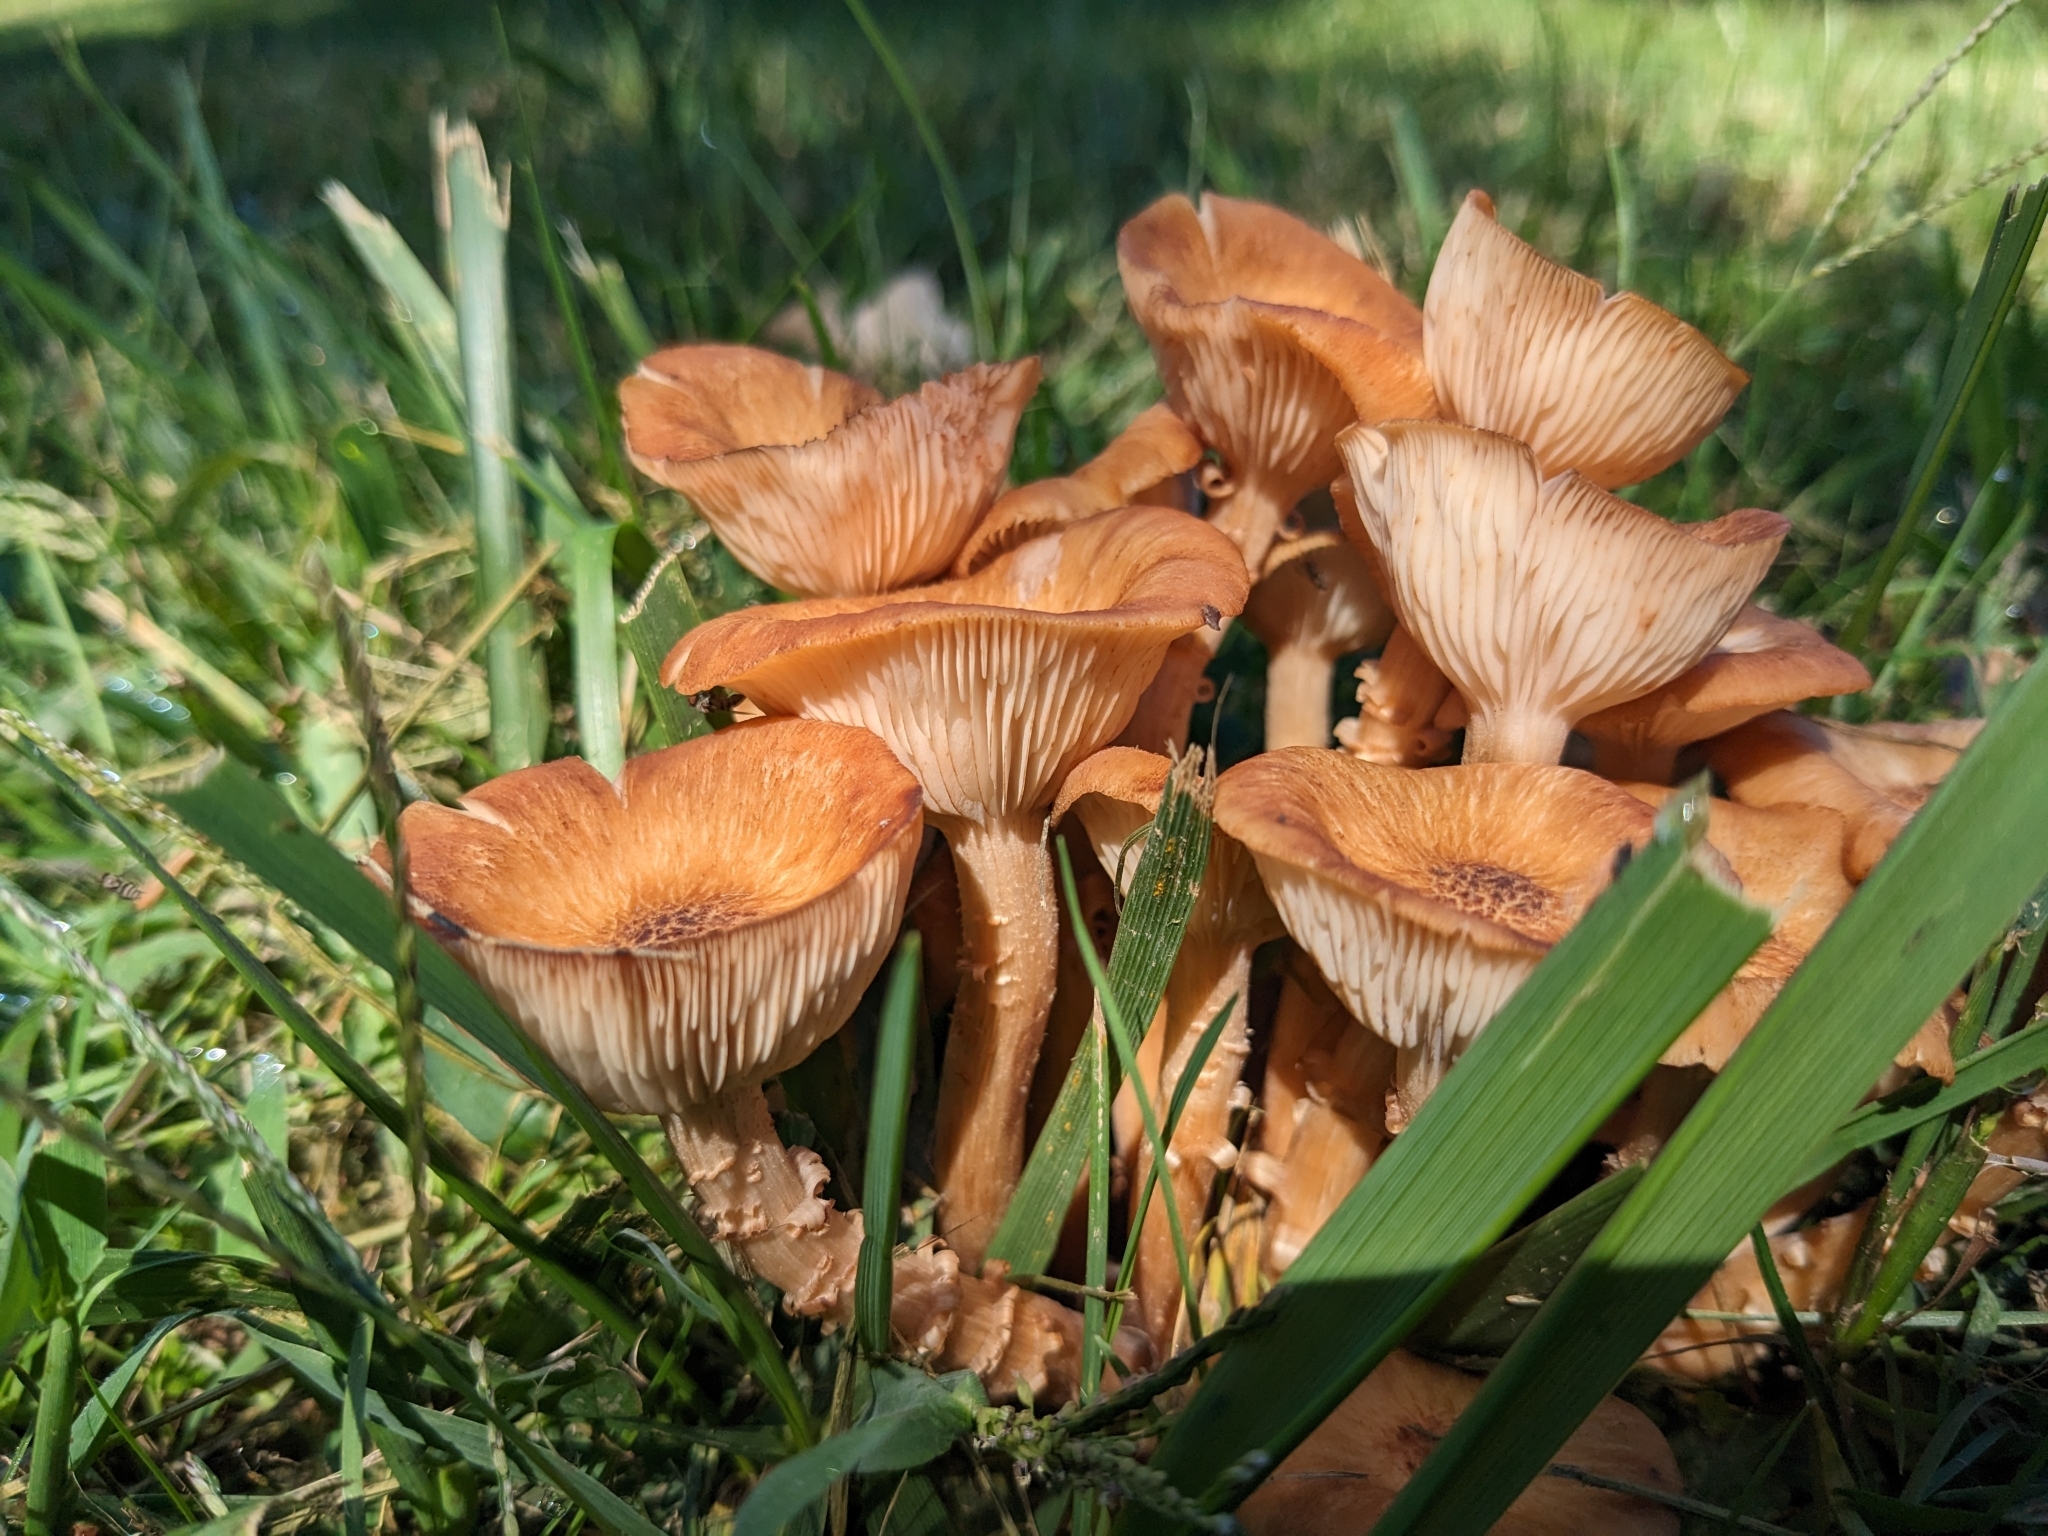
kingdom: Fungi
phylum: Basidiomycota
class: Agaricomycetes
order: Agaricales
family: Physalacriaceae
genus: Desarmillaria
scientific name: Desarmillaria caespitosa
